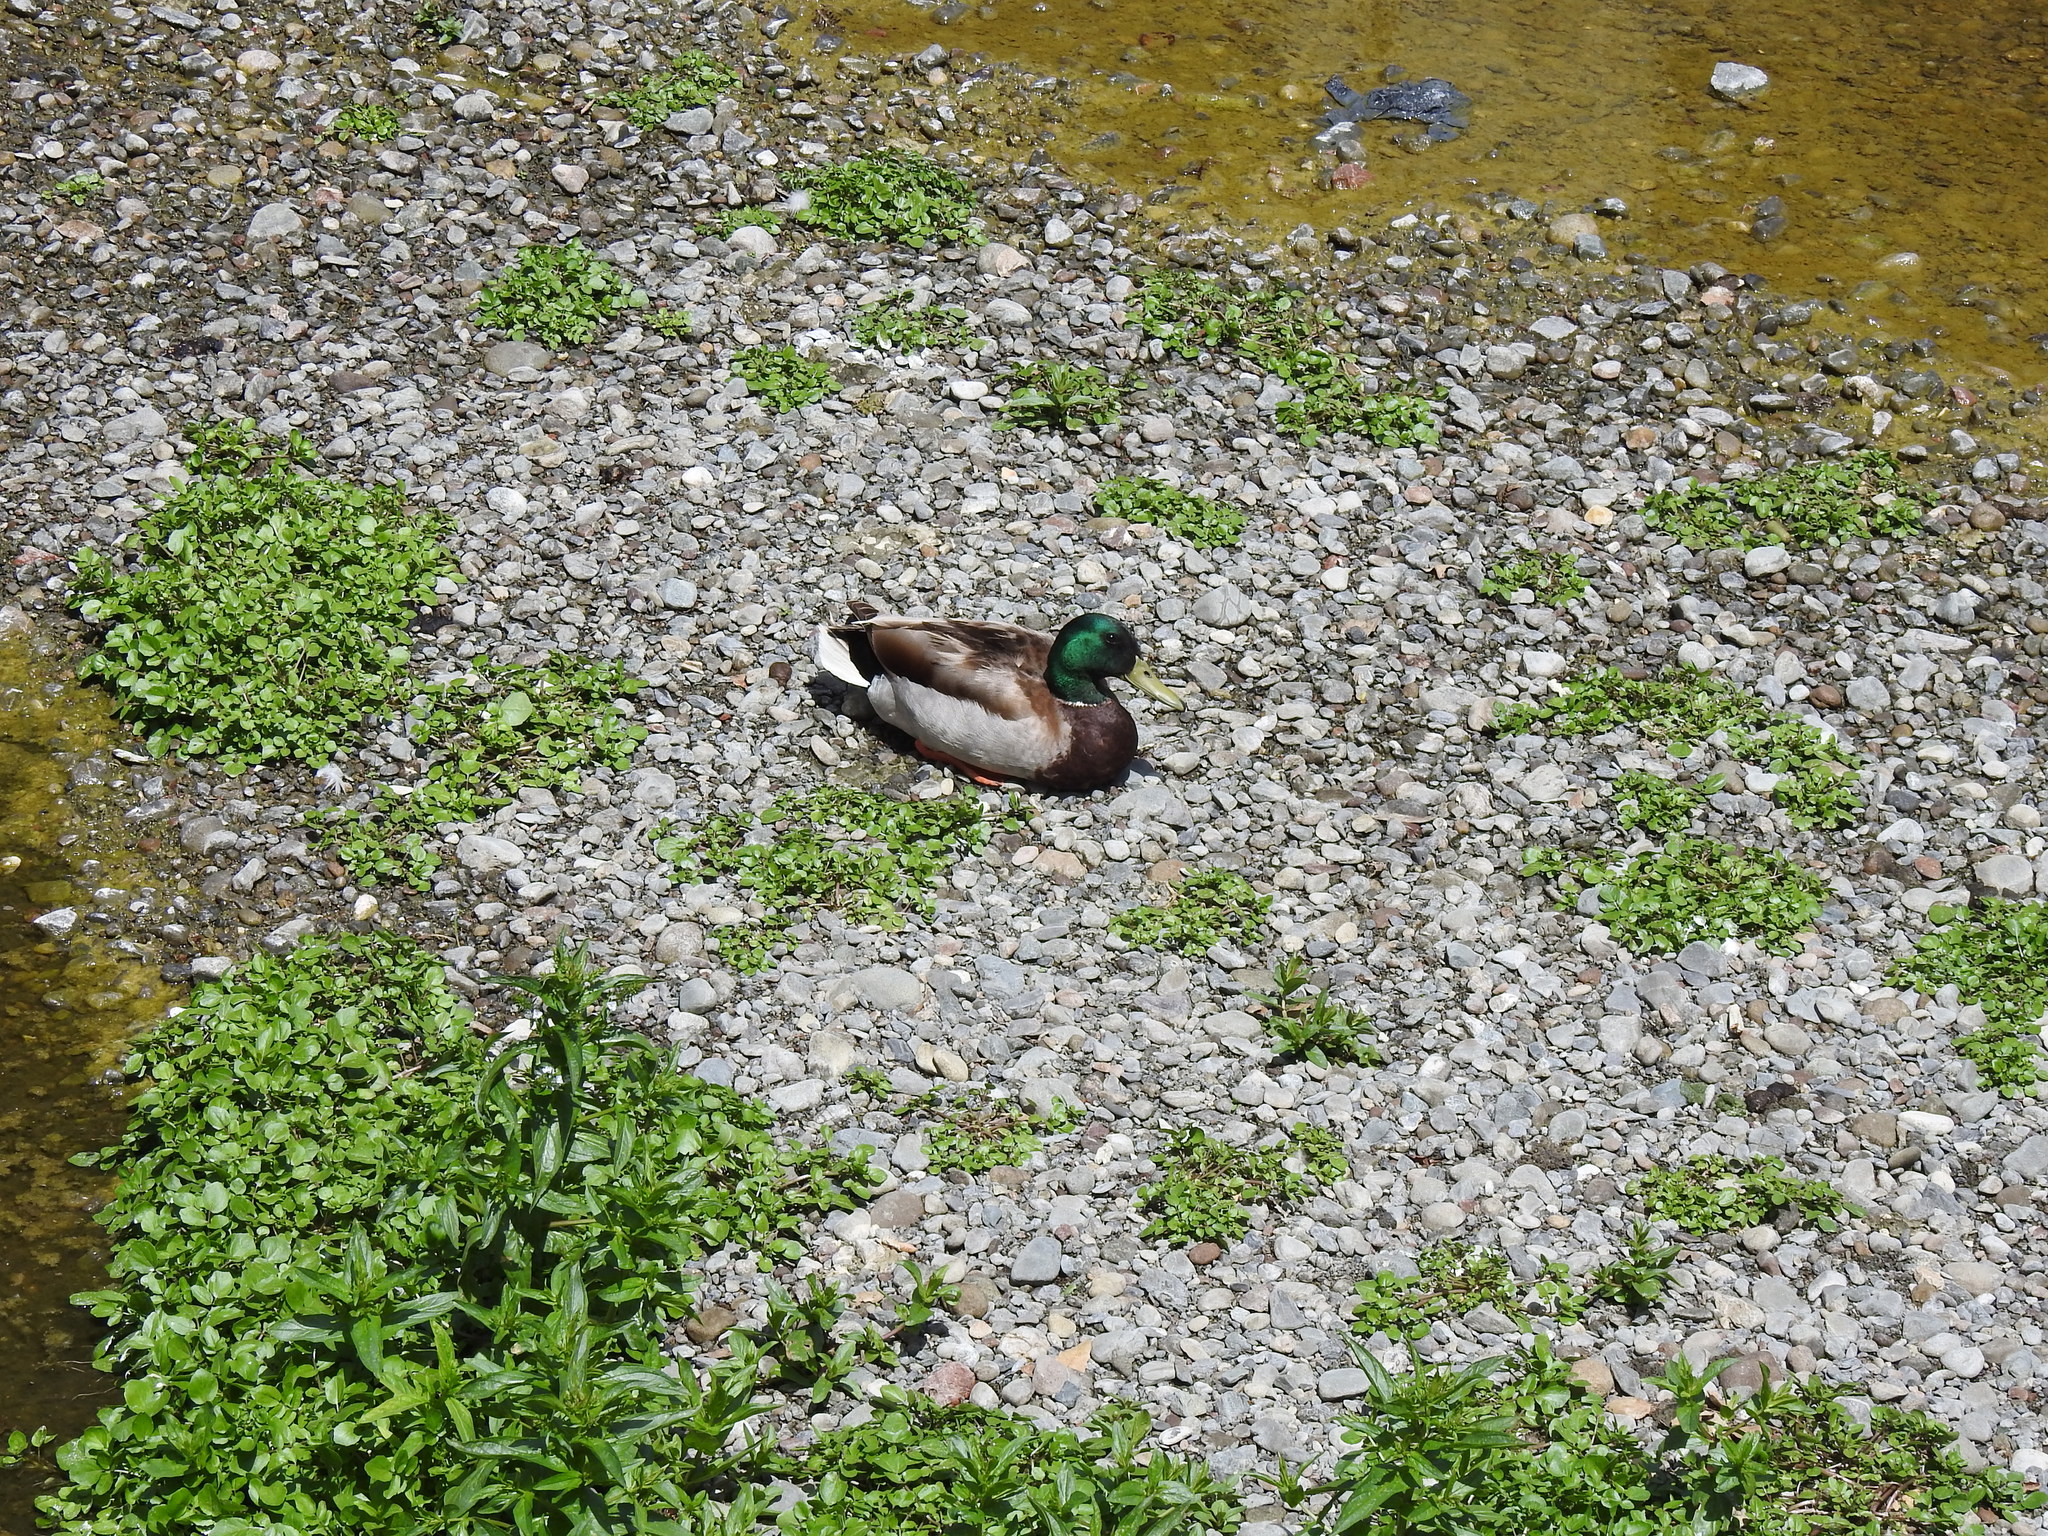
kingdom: Animalia
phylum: Chordata
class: Aves
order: Anseriformes
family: Anatidae
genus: Anas
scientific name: Anas platyrhynchos
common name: Mallard
